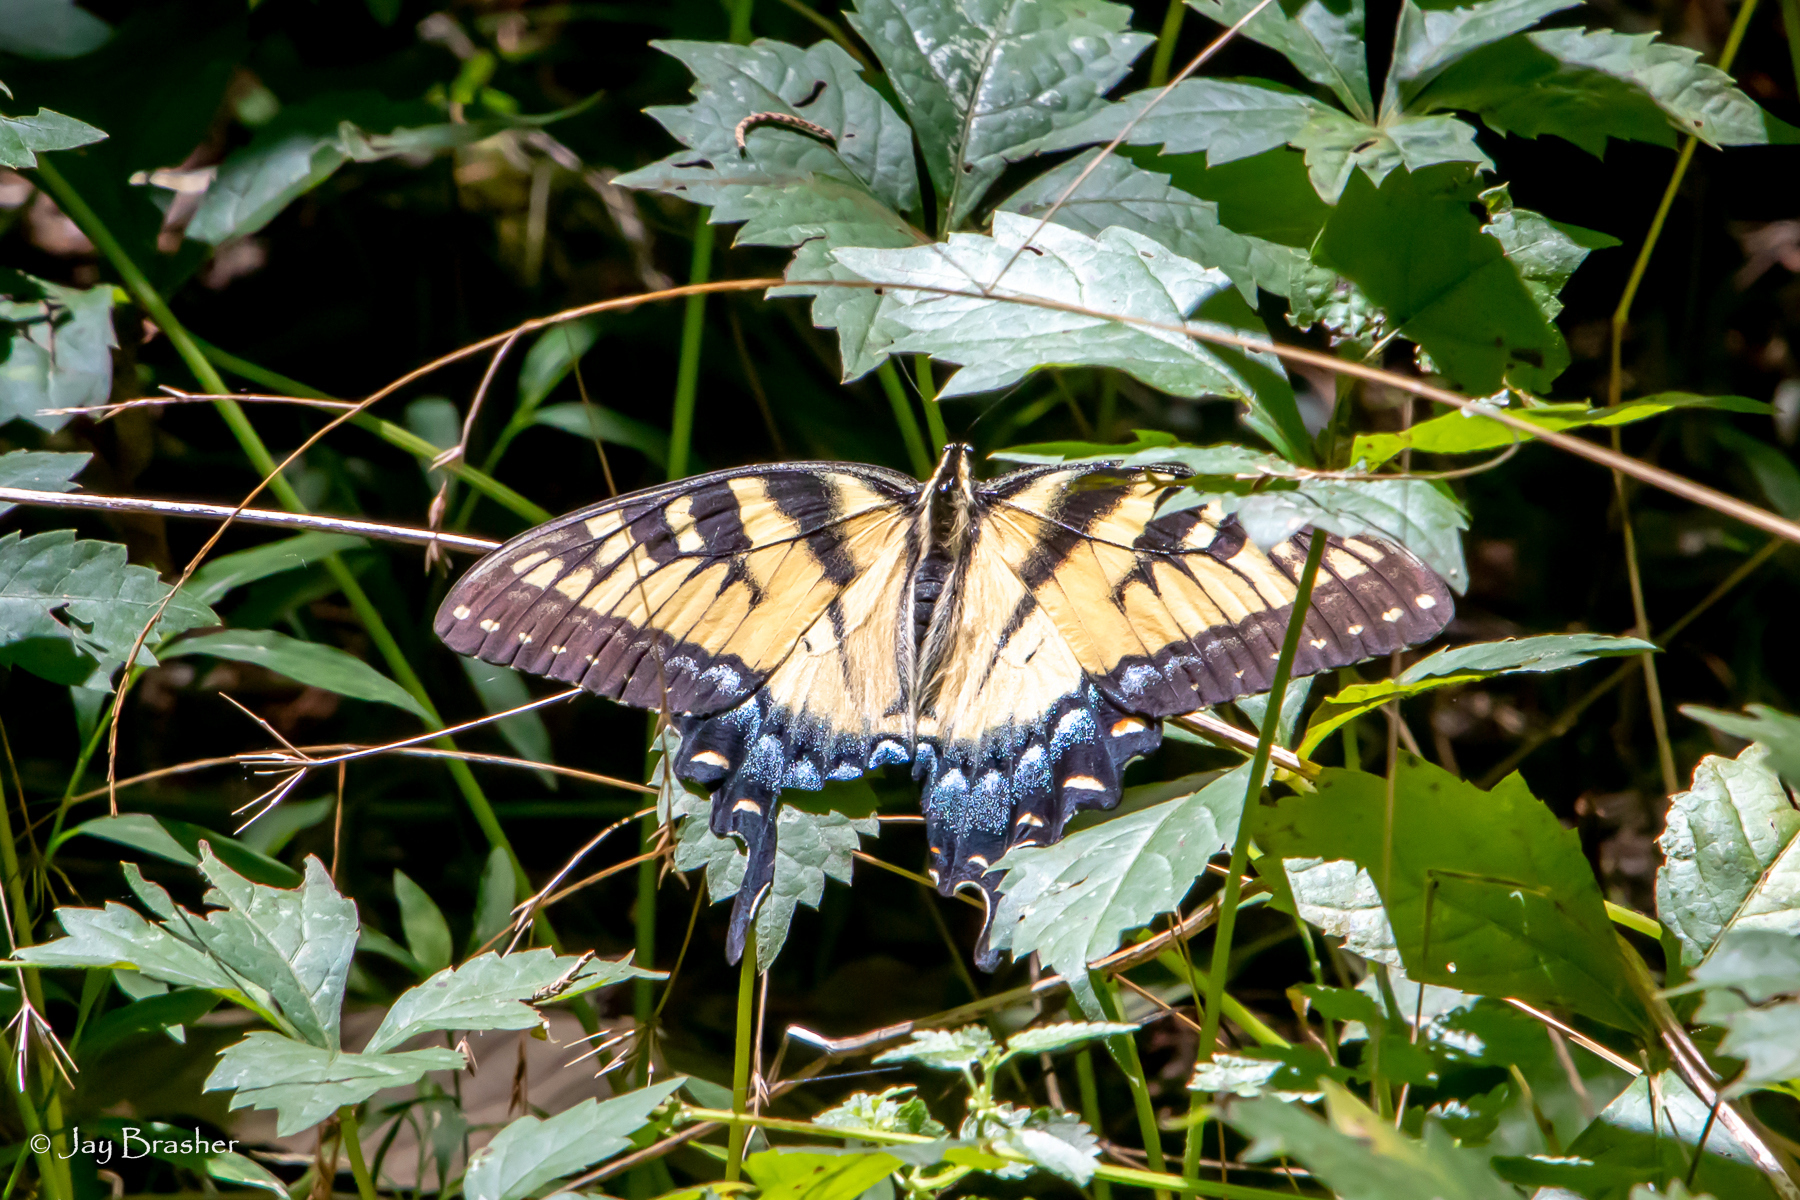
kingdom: Animalia
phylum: Arthropoda
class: Insecta
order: Lepidoptera
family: Papilionidae
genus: Papilio
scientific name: Papilio glaucus
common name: Tiger swallowtail
